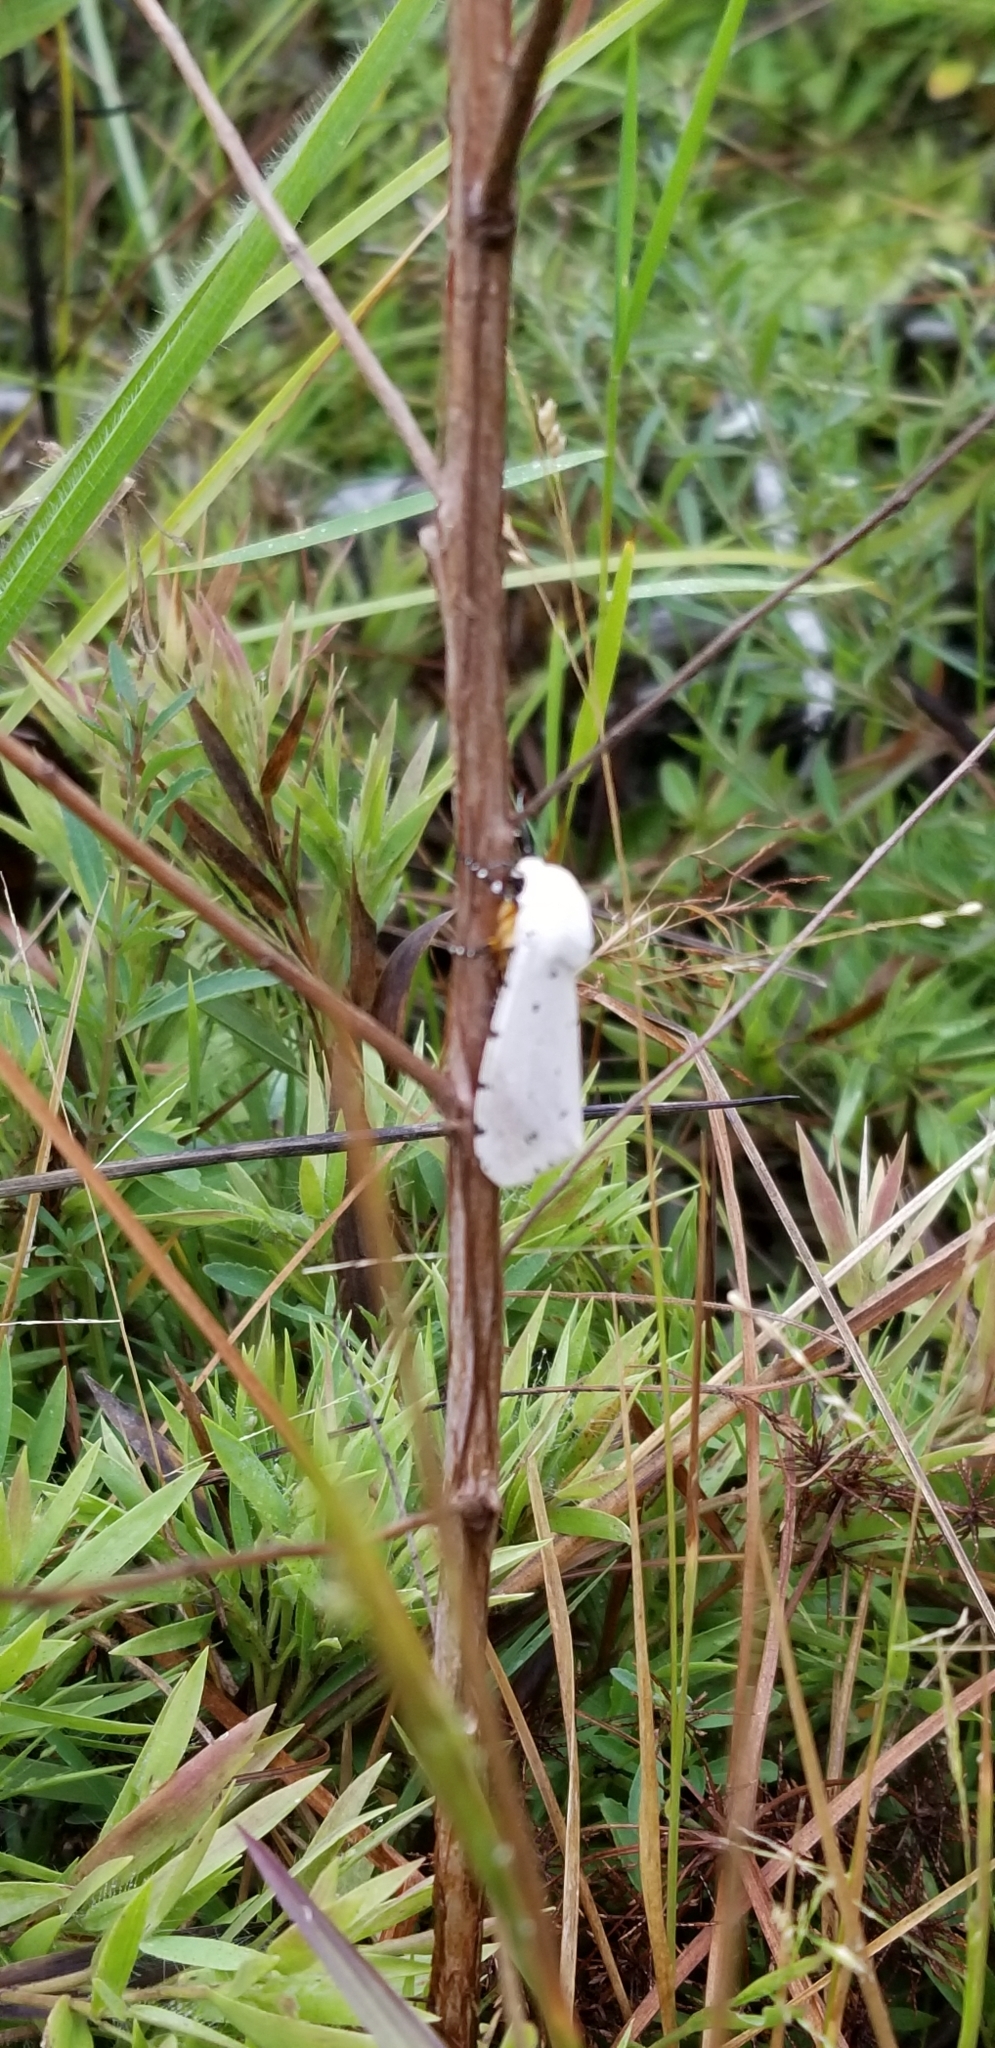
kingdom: Animalia
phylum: Arthropoda
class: Insecta
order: Lepidoptera
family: Erebidae
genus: Estigmene
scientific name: Estigmene acrea
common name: Salt marsh moth
